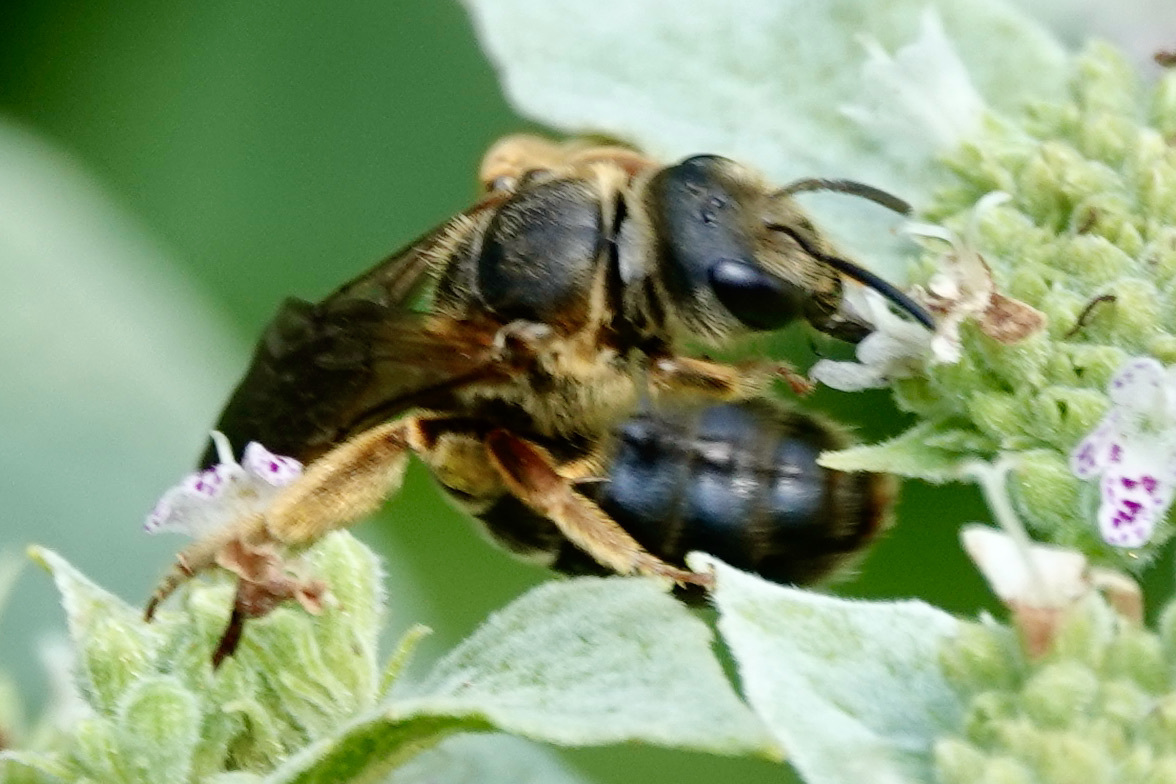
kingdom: Animalia
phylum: Arthropoda
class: Insecta
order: Hymenoptera
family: Halictidae
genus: Halictus
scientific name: Halictus parallelus
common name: Parallel-striped sweat bee
